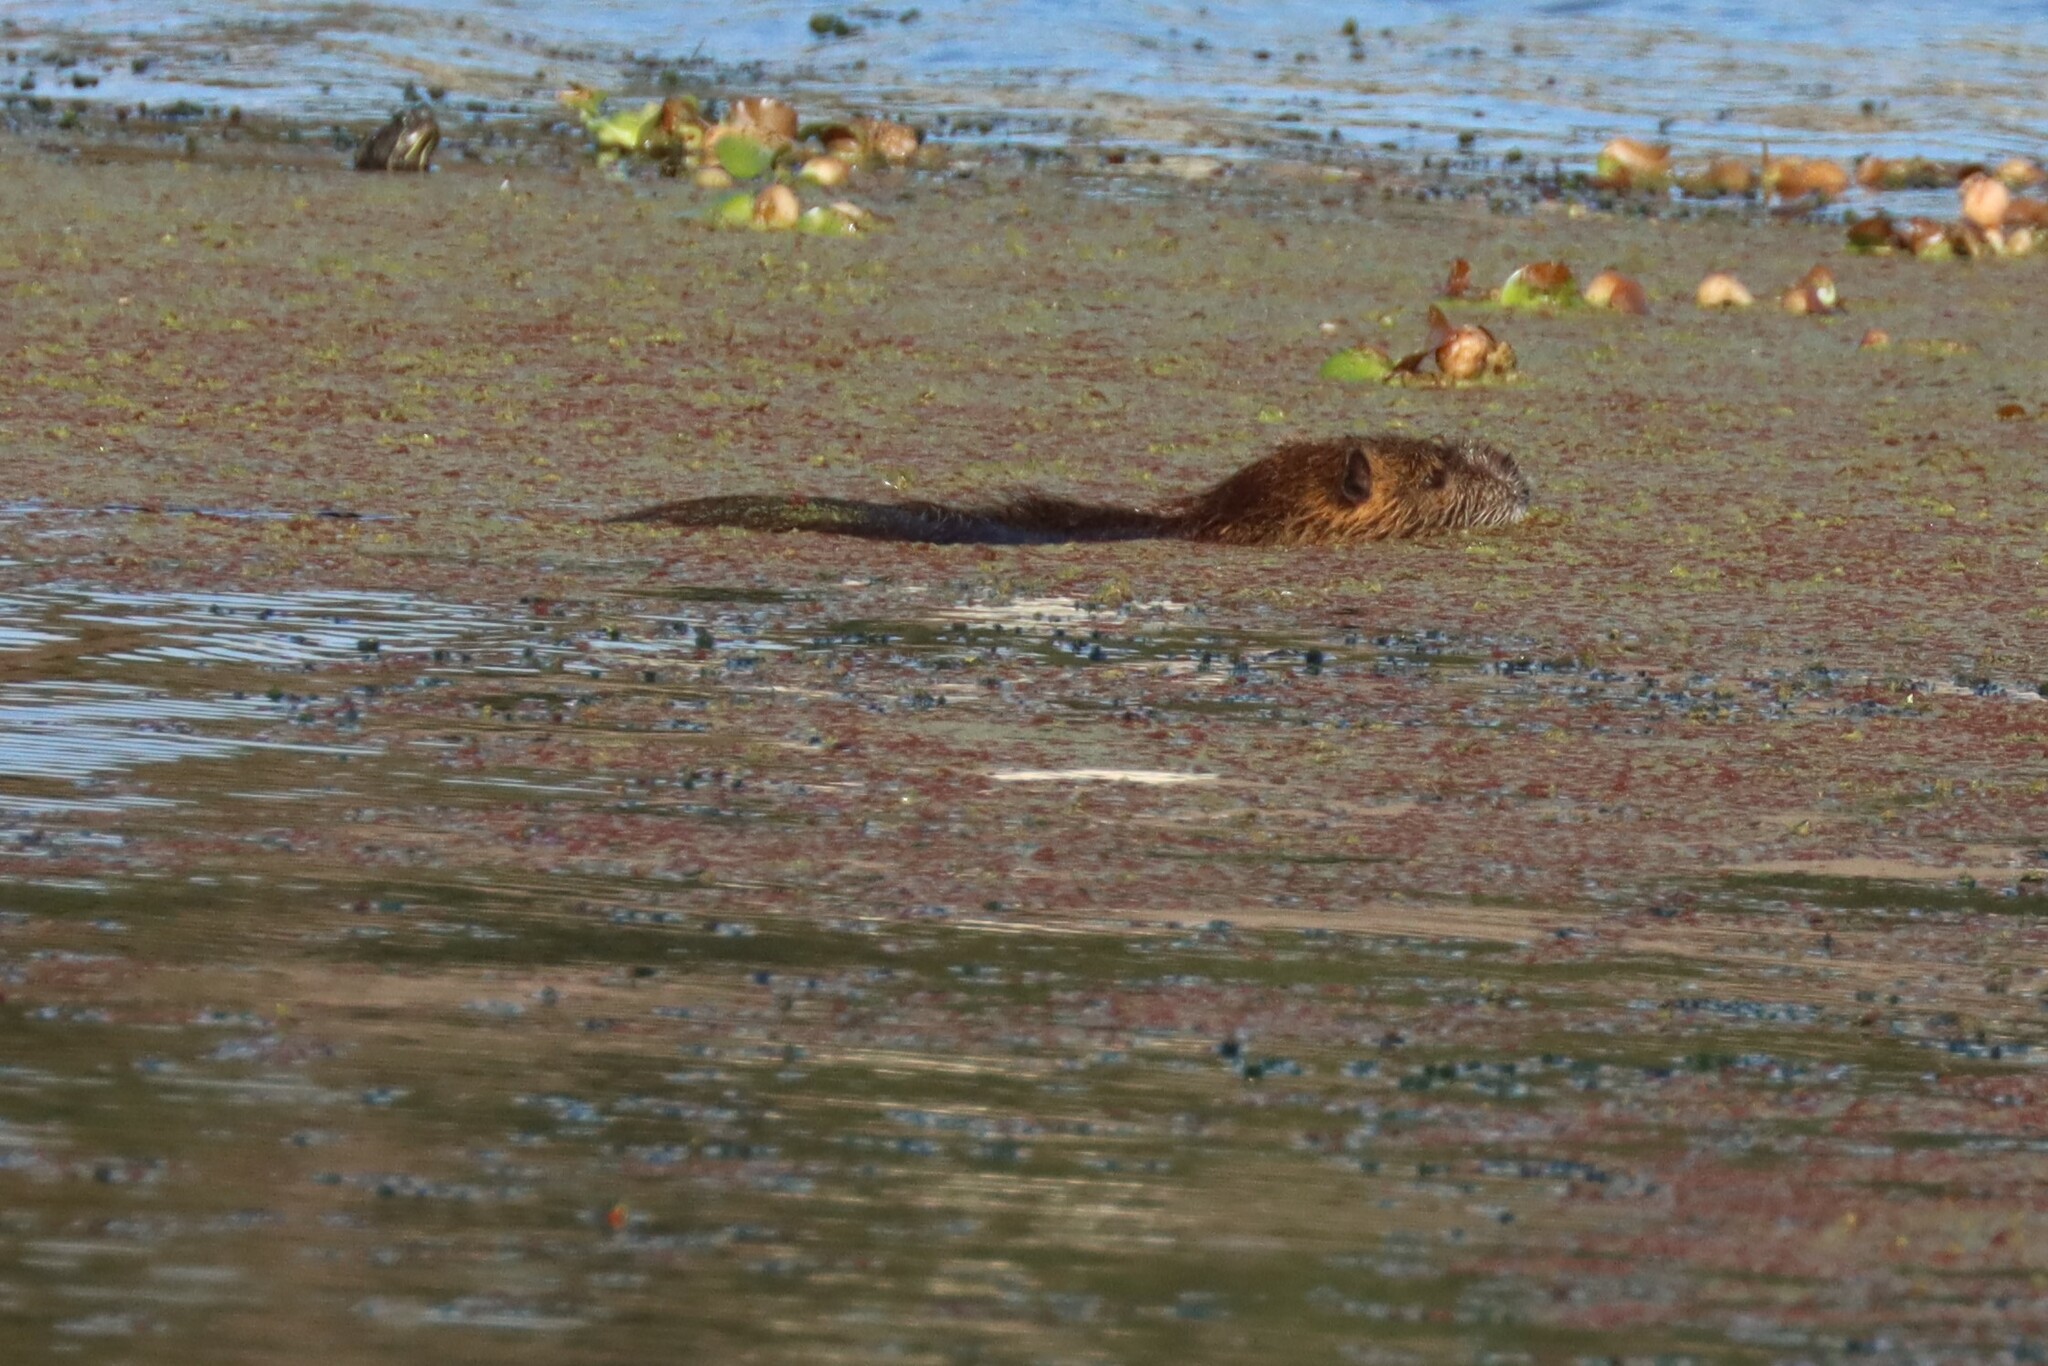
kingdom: Animalia
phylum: Chordata
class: Mammalia
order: Rodentia
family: Myocastoridae
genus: Myocastor
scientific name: Myocastor coypus
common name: Coypu
